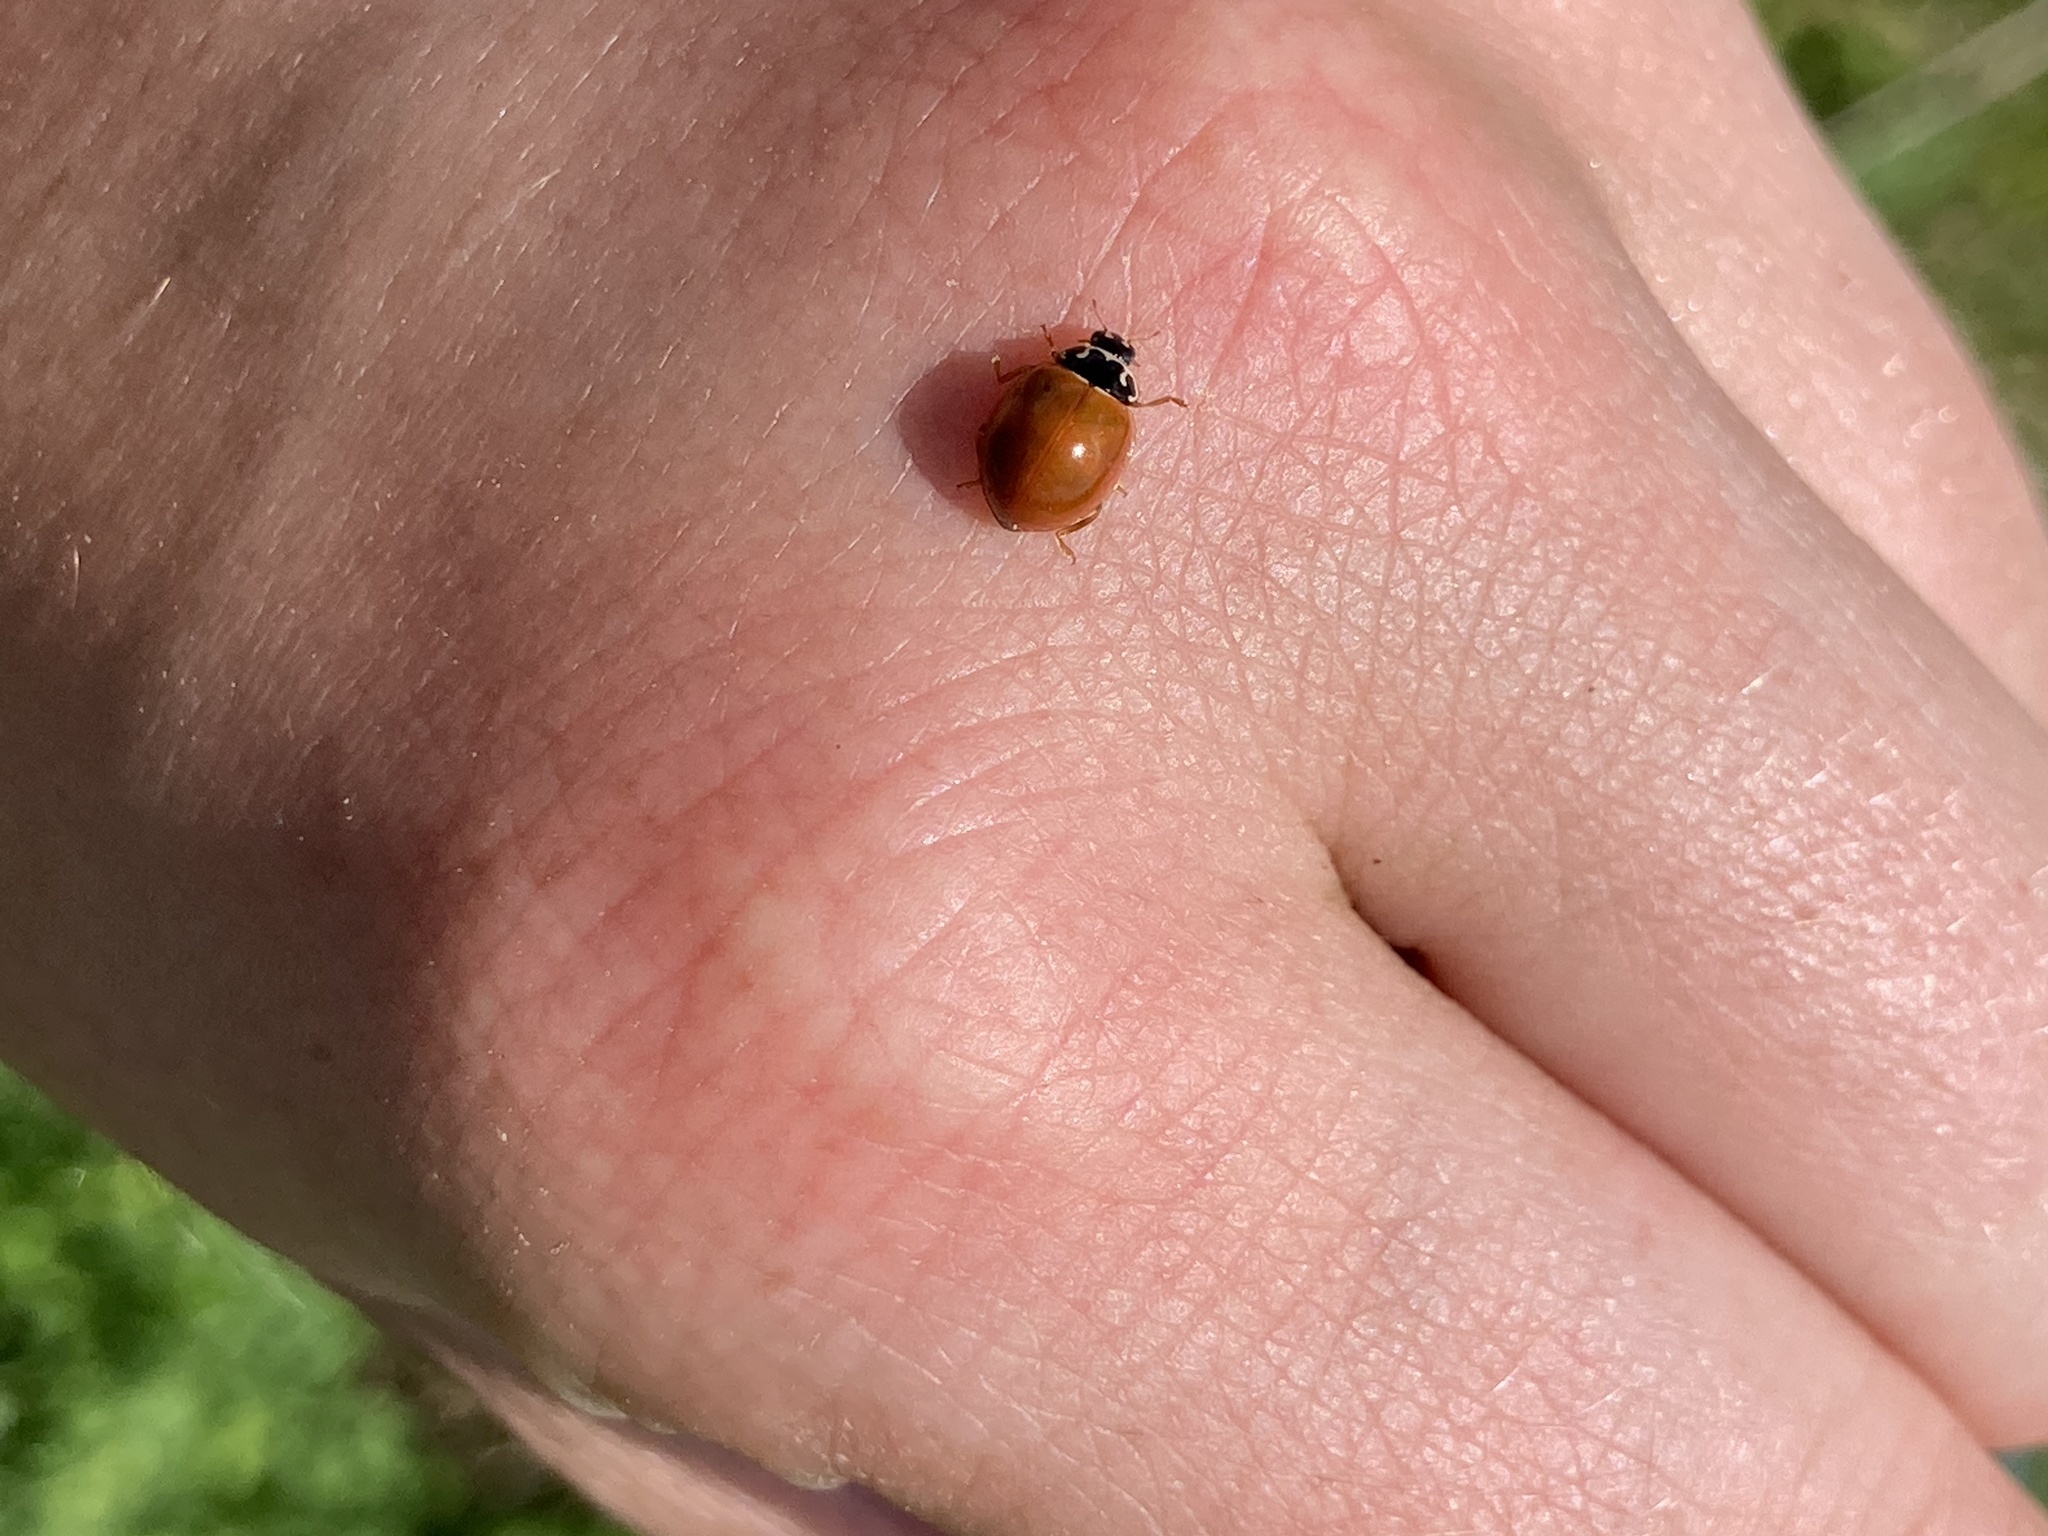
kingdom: Animalia
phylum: Arthropoda
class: Insecta
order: Coleoptera
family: Coccinellidae
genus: Cycloneda
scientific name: Cycloneda munda
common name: Polished lady beetle
